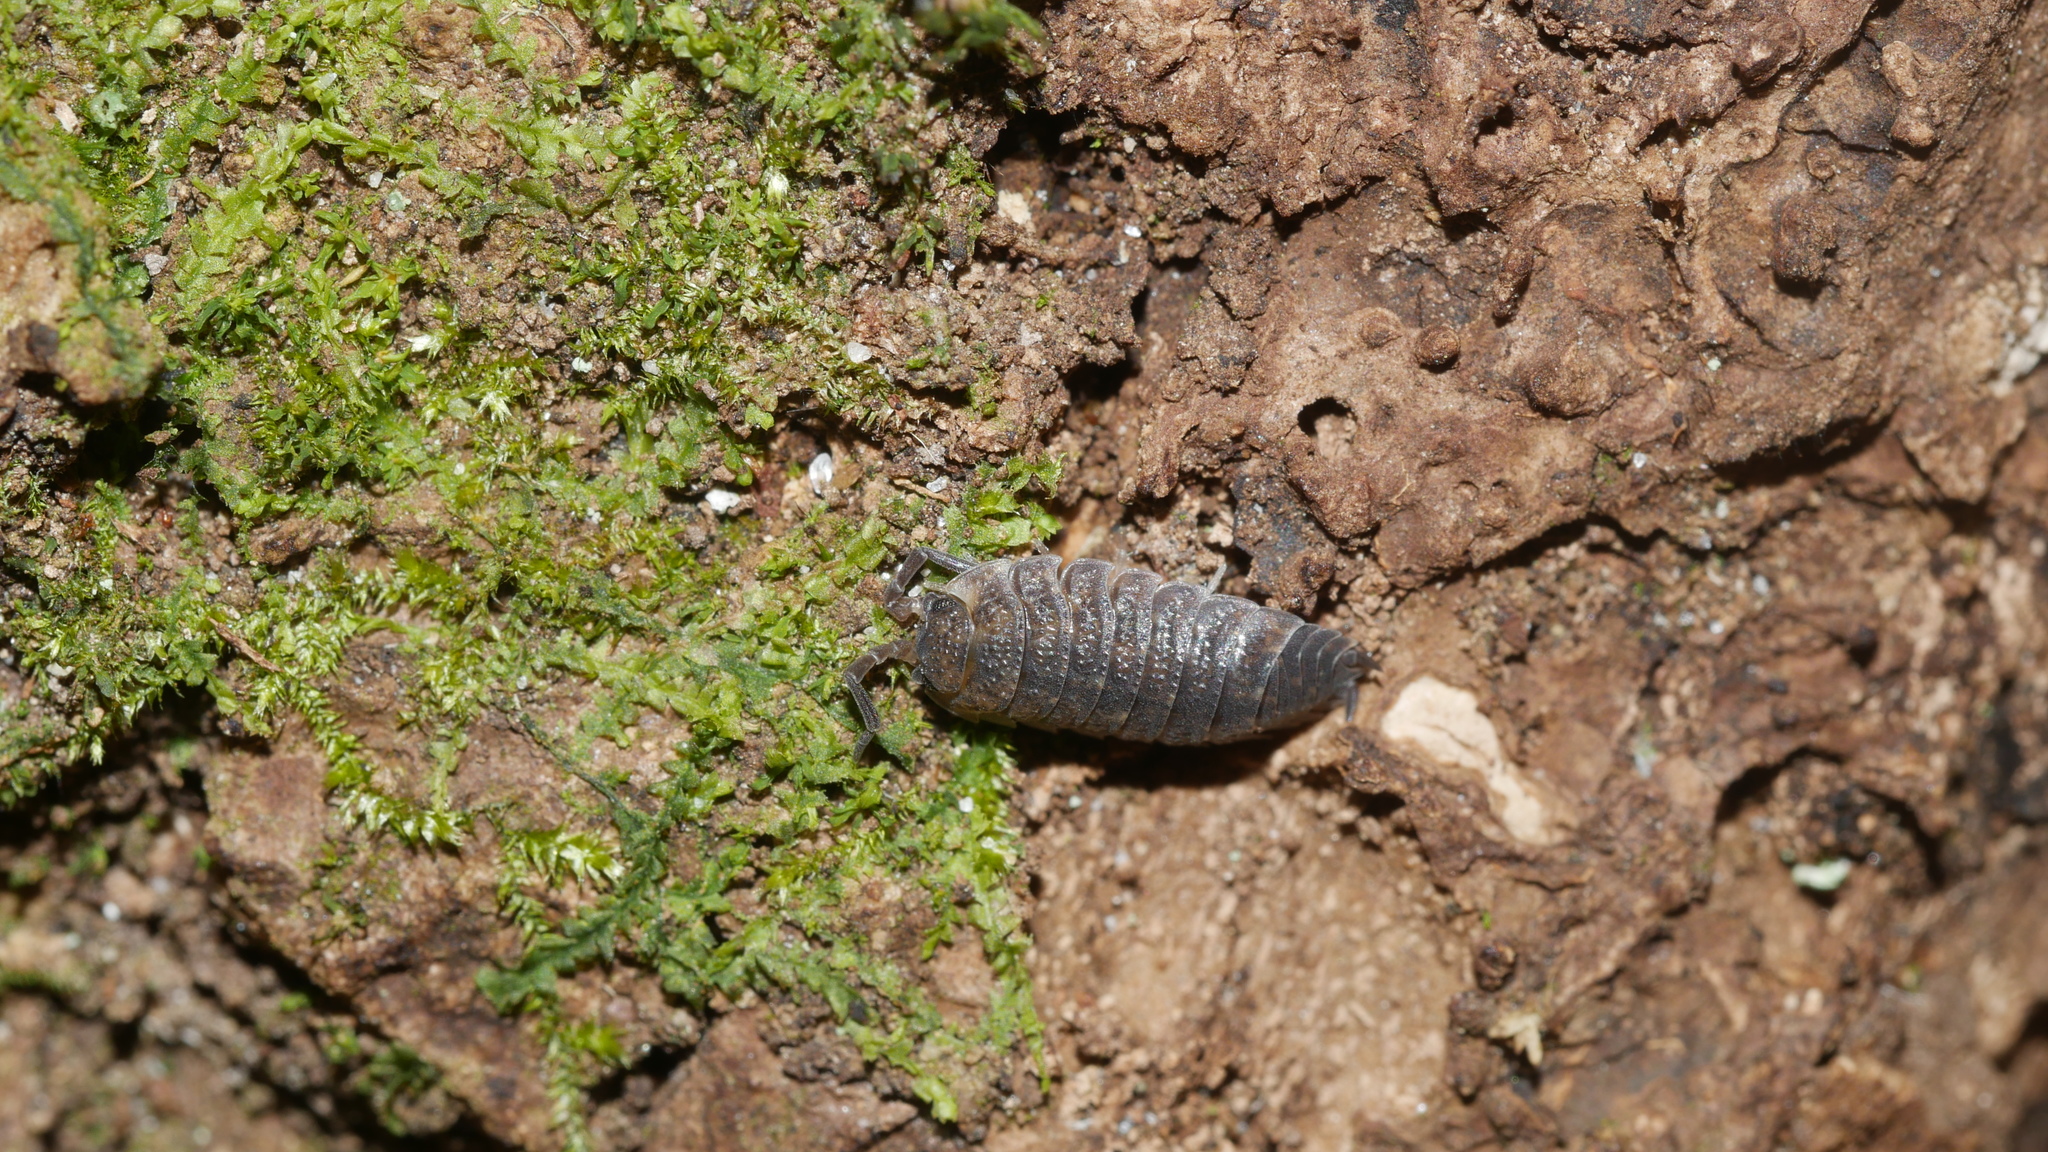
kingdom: Animalia
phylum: Arthropoda
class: Malacostraca
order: Isopoda
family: Porcellionidae
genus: Porcellio
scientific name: Porcellio scaber
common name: Common rough woodlouse
